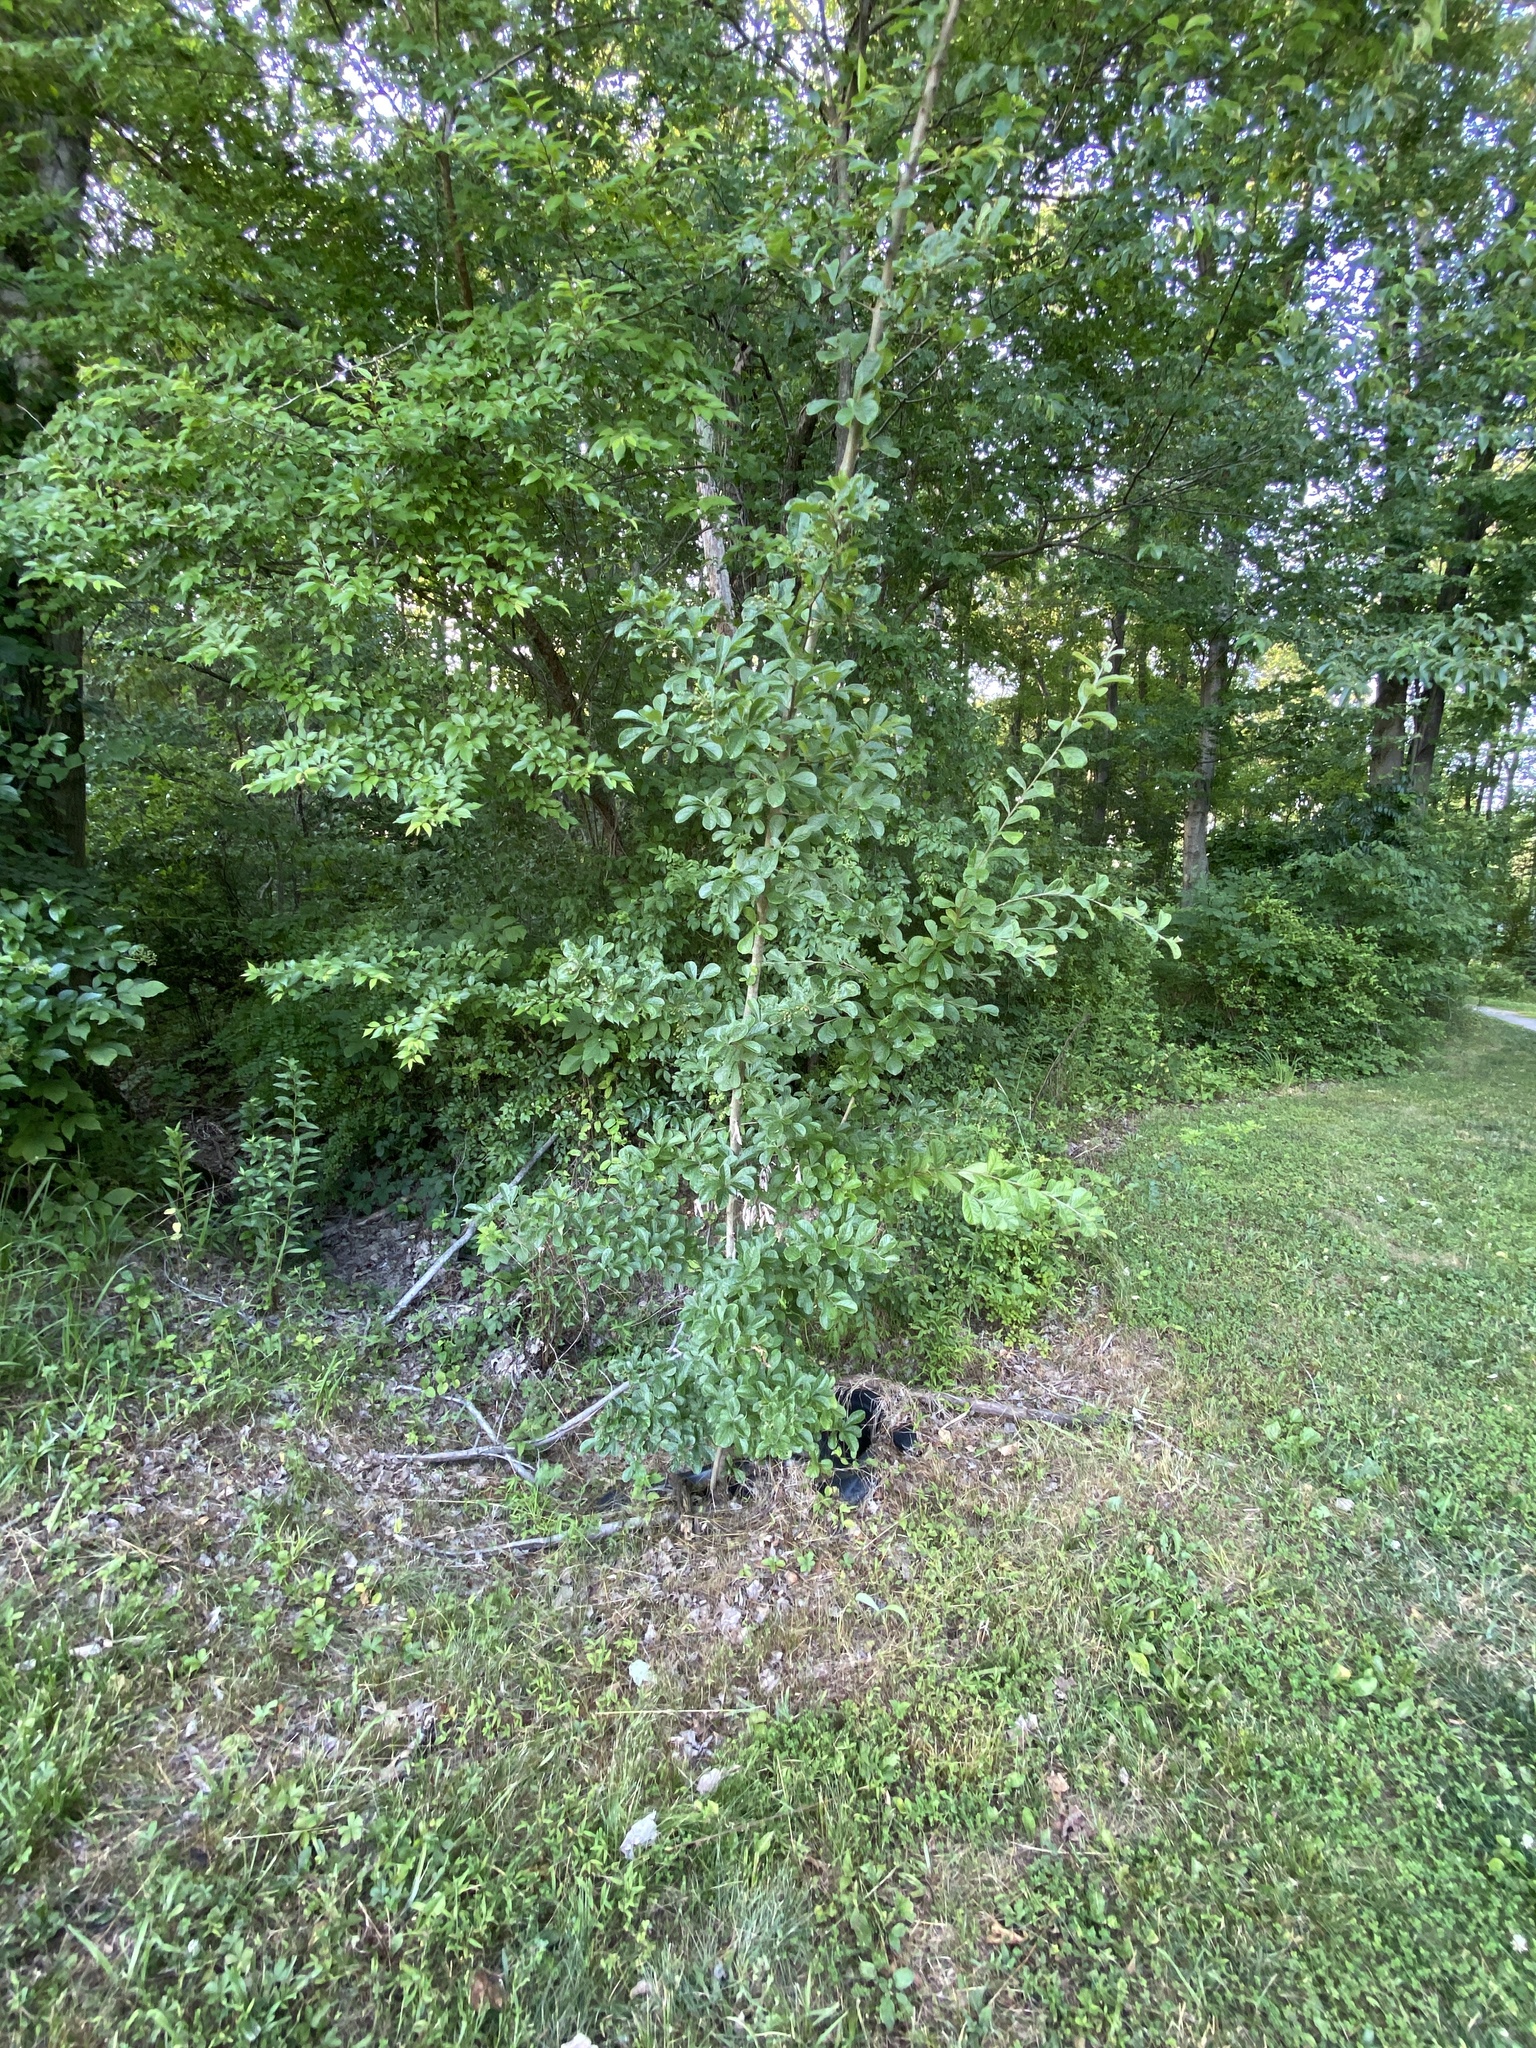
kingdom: Plantae
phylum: Tracheophyta
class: Magnoliopsida
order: Rosales
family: Rosaceae
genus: Pourthiaea
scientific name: Pourthiaea villosa
